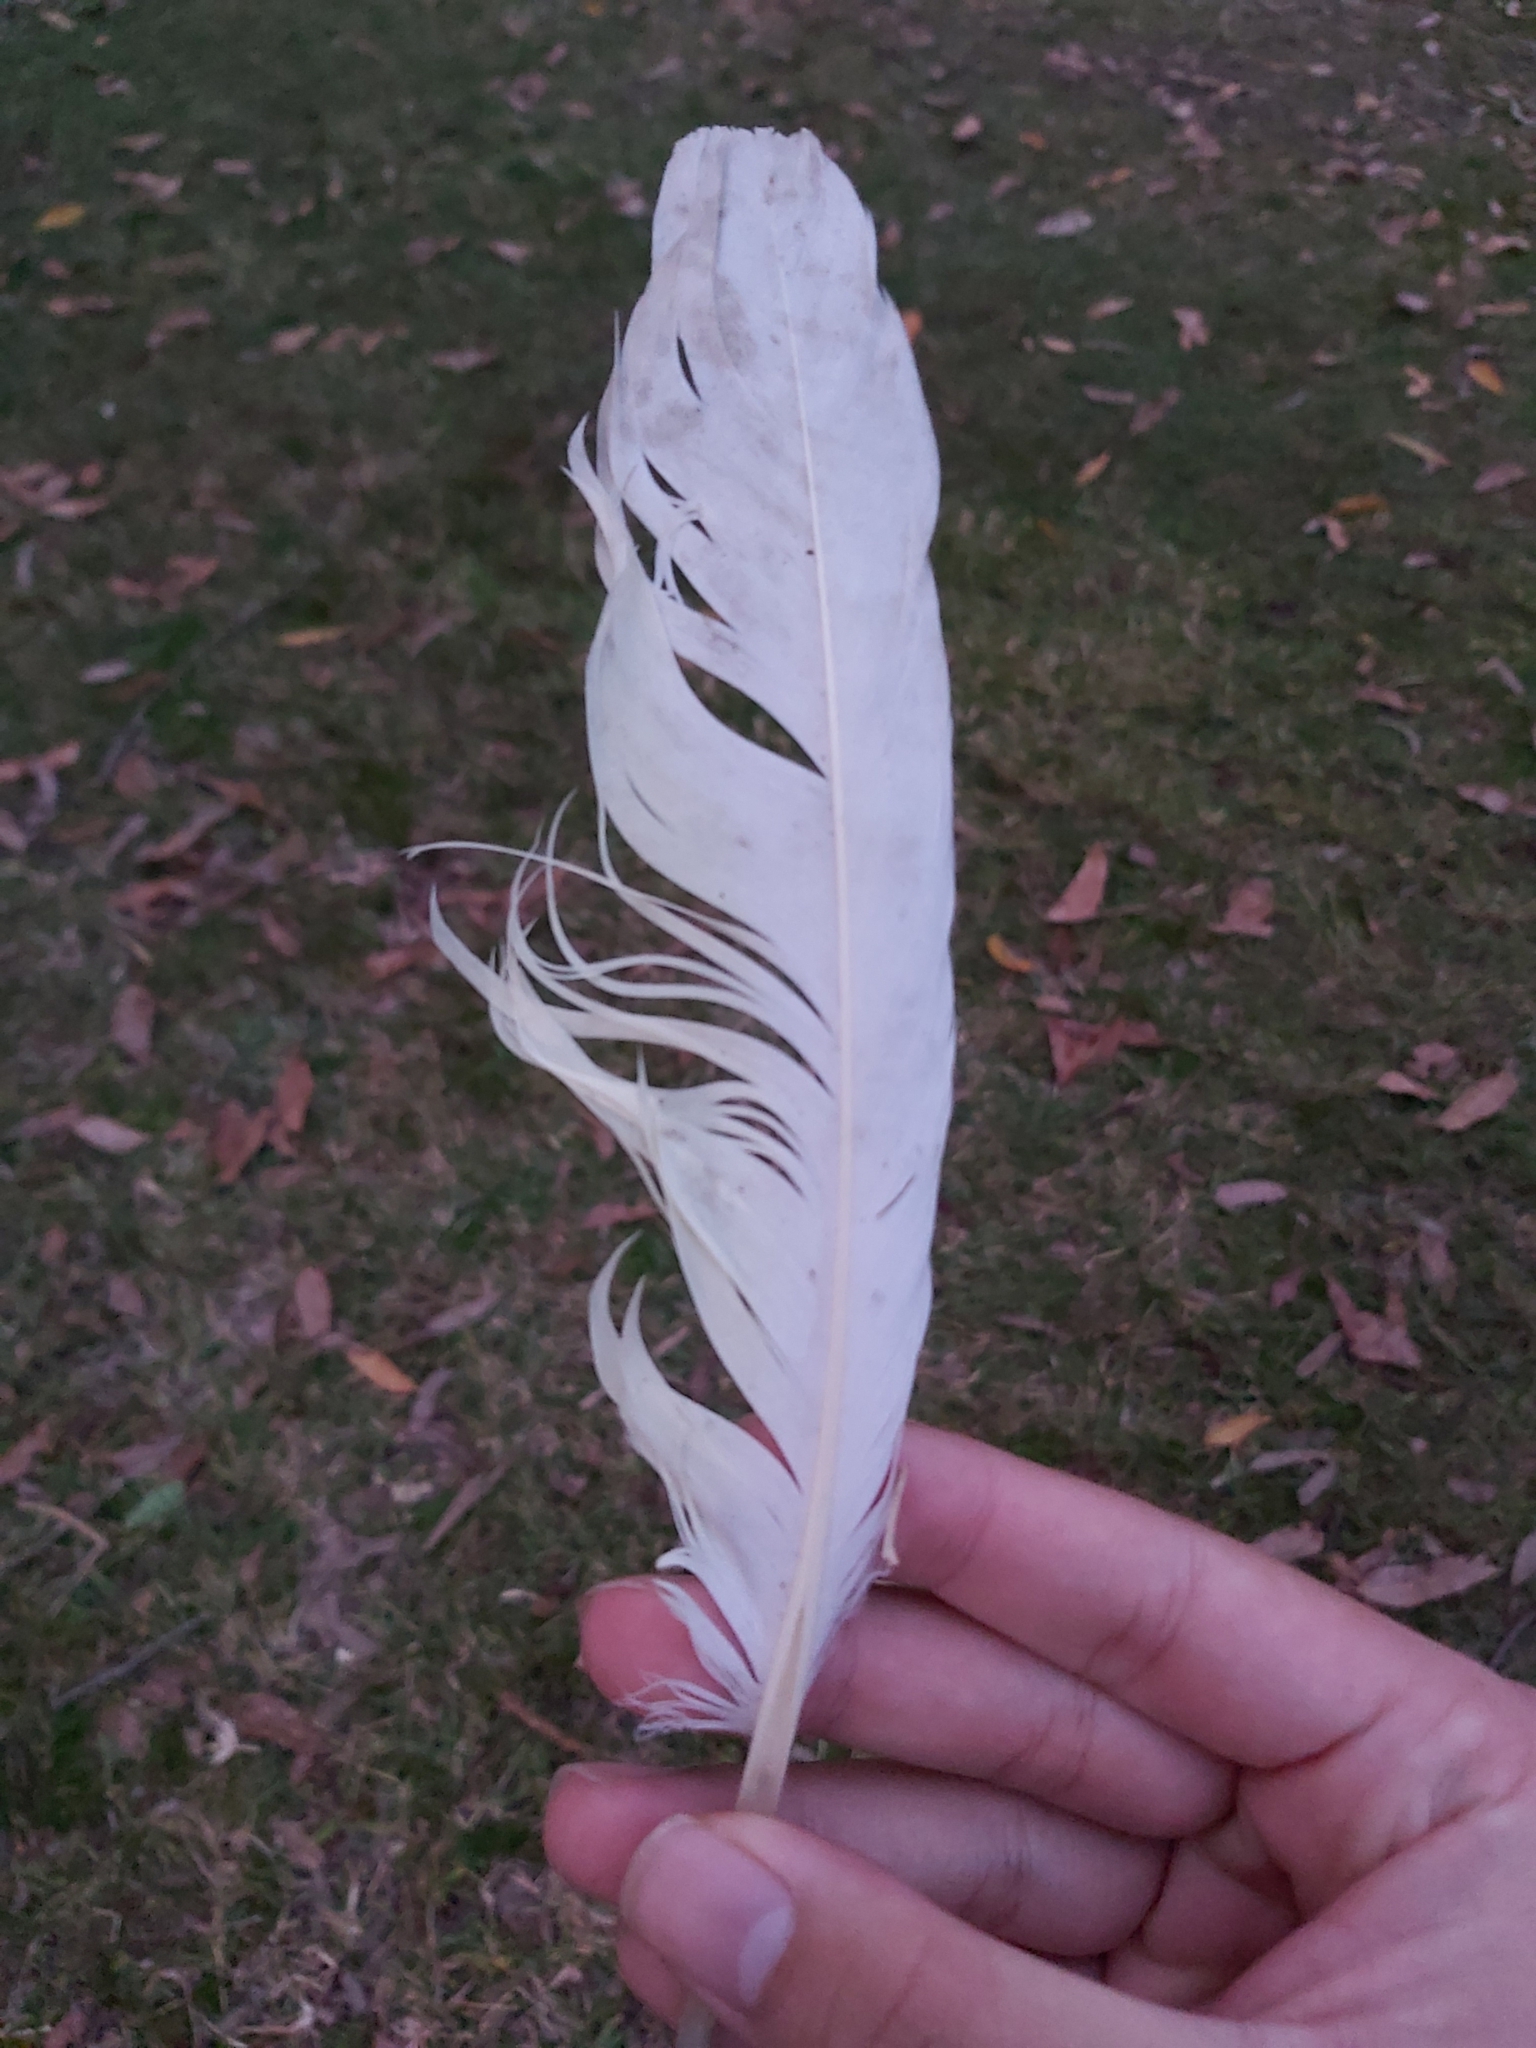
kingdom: Animalia
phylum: Chordata
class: Aves
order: Psittaciformes
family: Psittacidae
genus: Cacatua
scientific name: Cacatua galerita
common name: Sulphur-crested cockatoo
